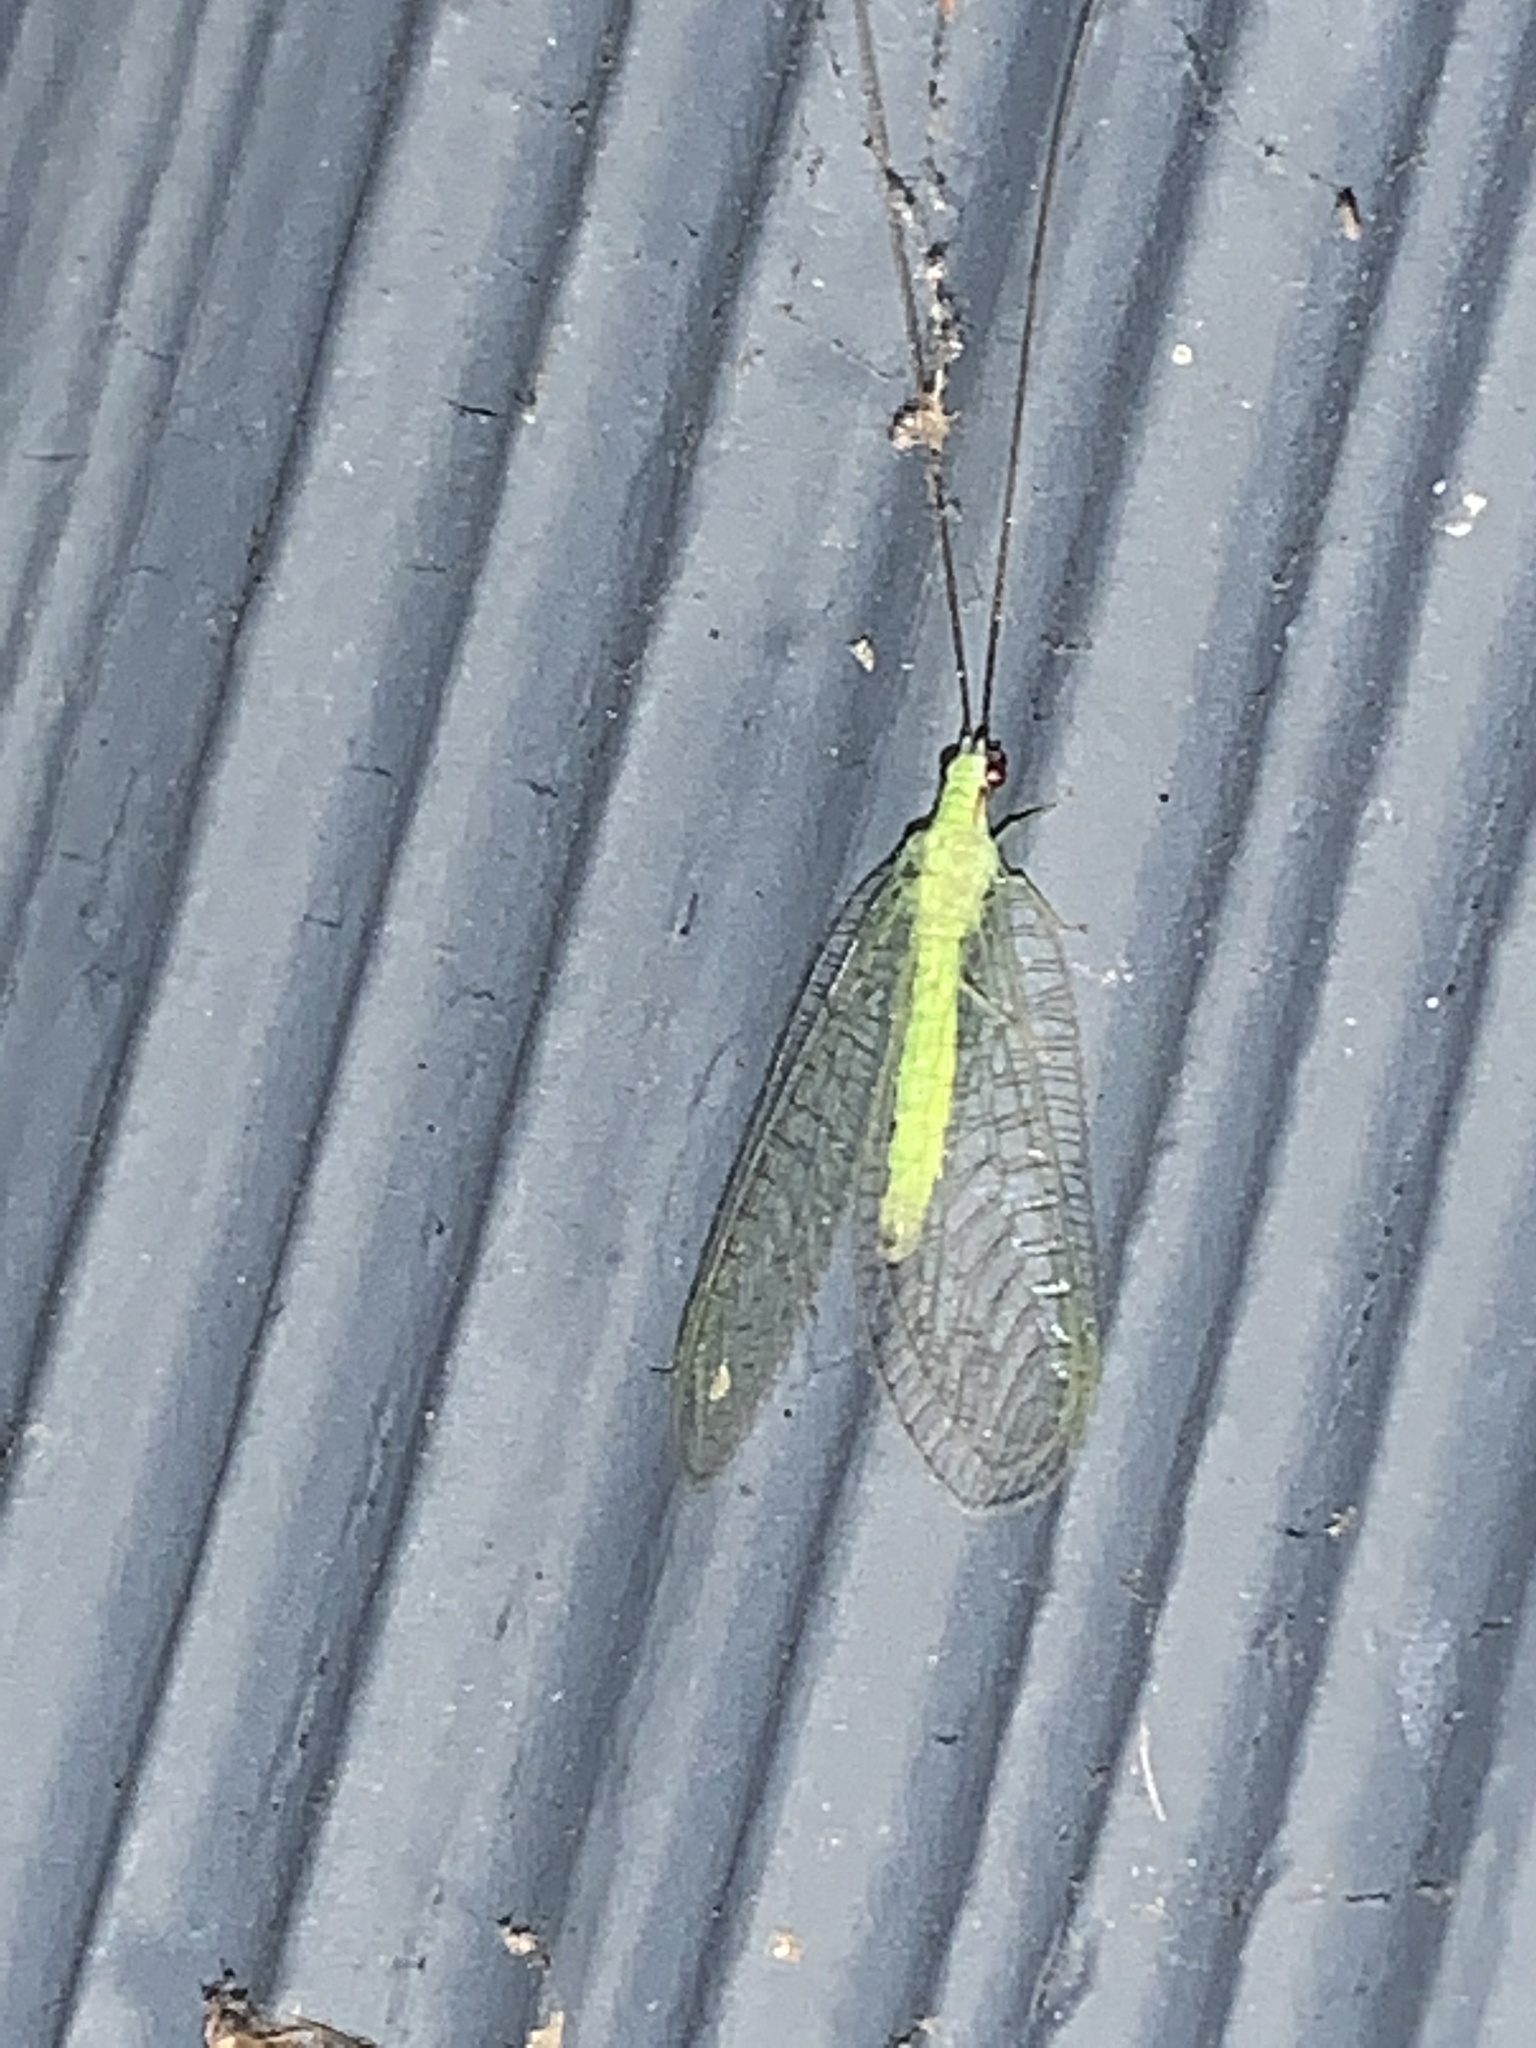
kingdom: Animalia
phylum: Arthropoda
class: Insecta
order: Neuroptera
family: Chrysopidae
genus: Chrysopa
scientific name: Chrysopa nigricornis
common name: Black-horned green lacewing
